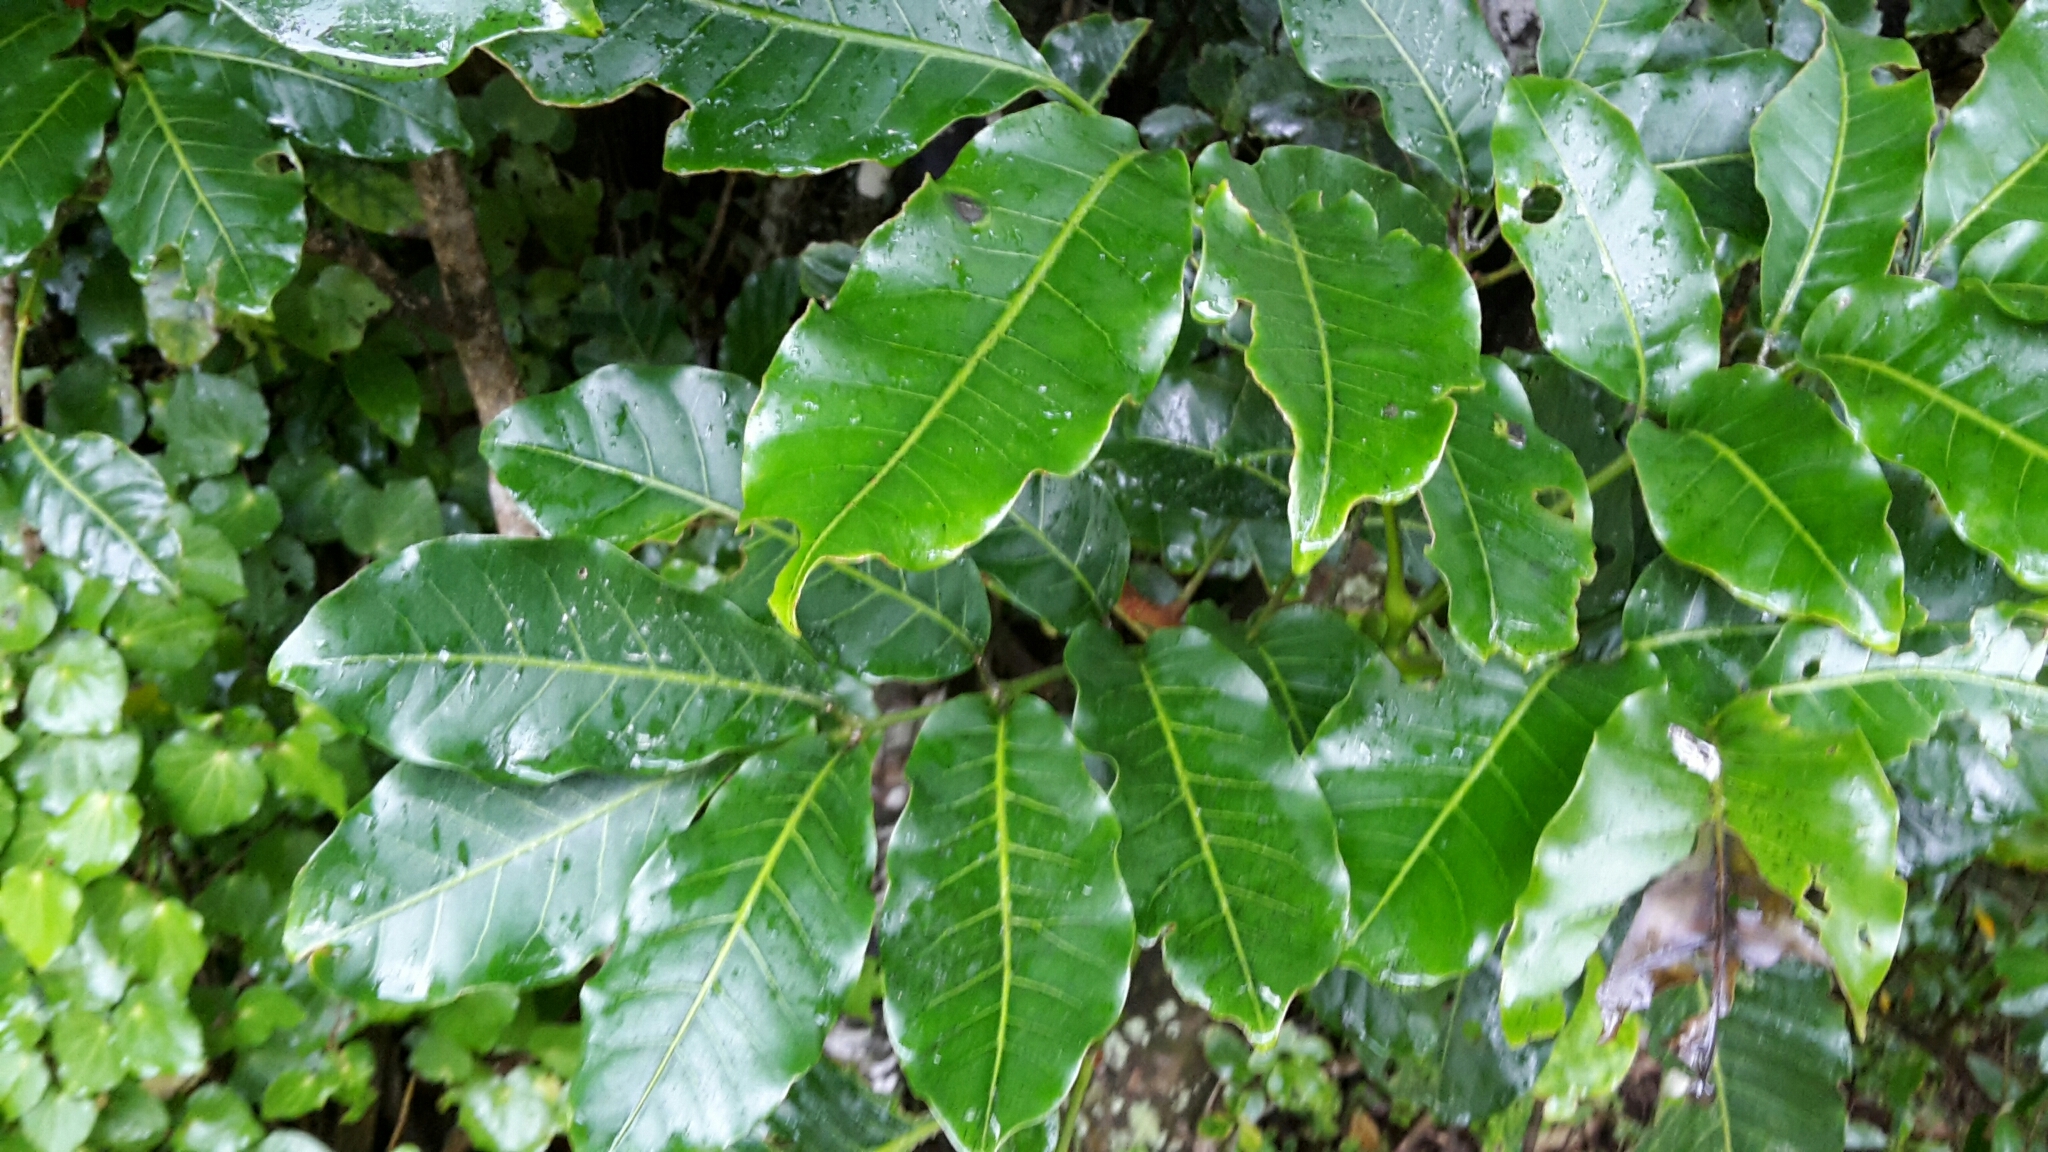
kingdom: Plantae
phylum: Tracheophyta
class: Magnoliopsida
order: Sapindales
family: Meliaceae
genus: Didymocheton
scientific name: Didymocheton spectabilis
